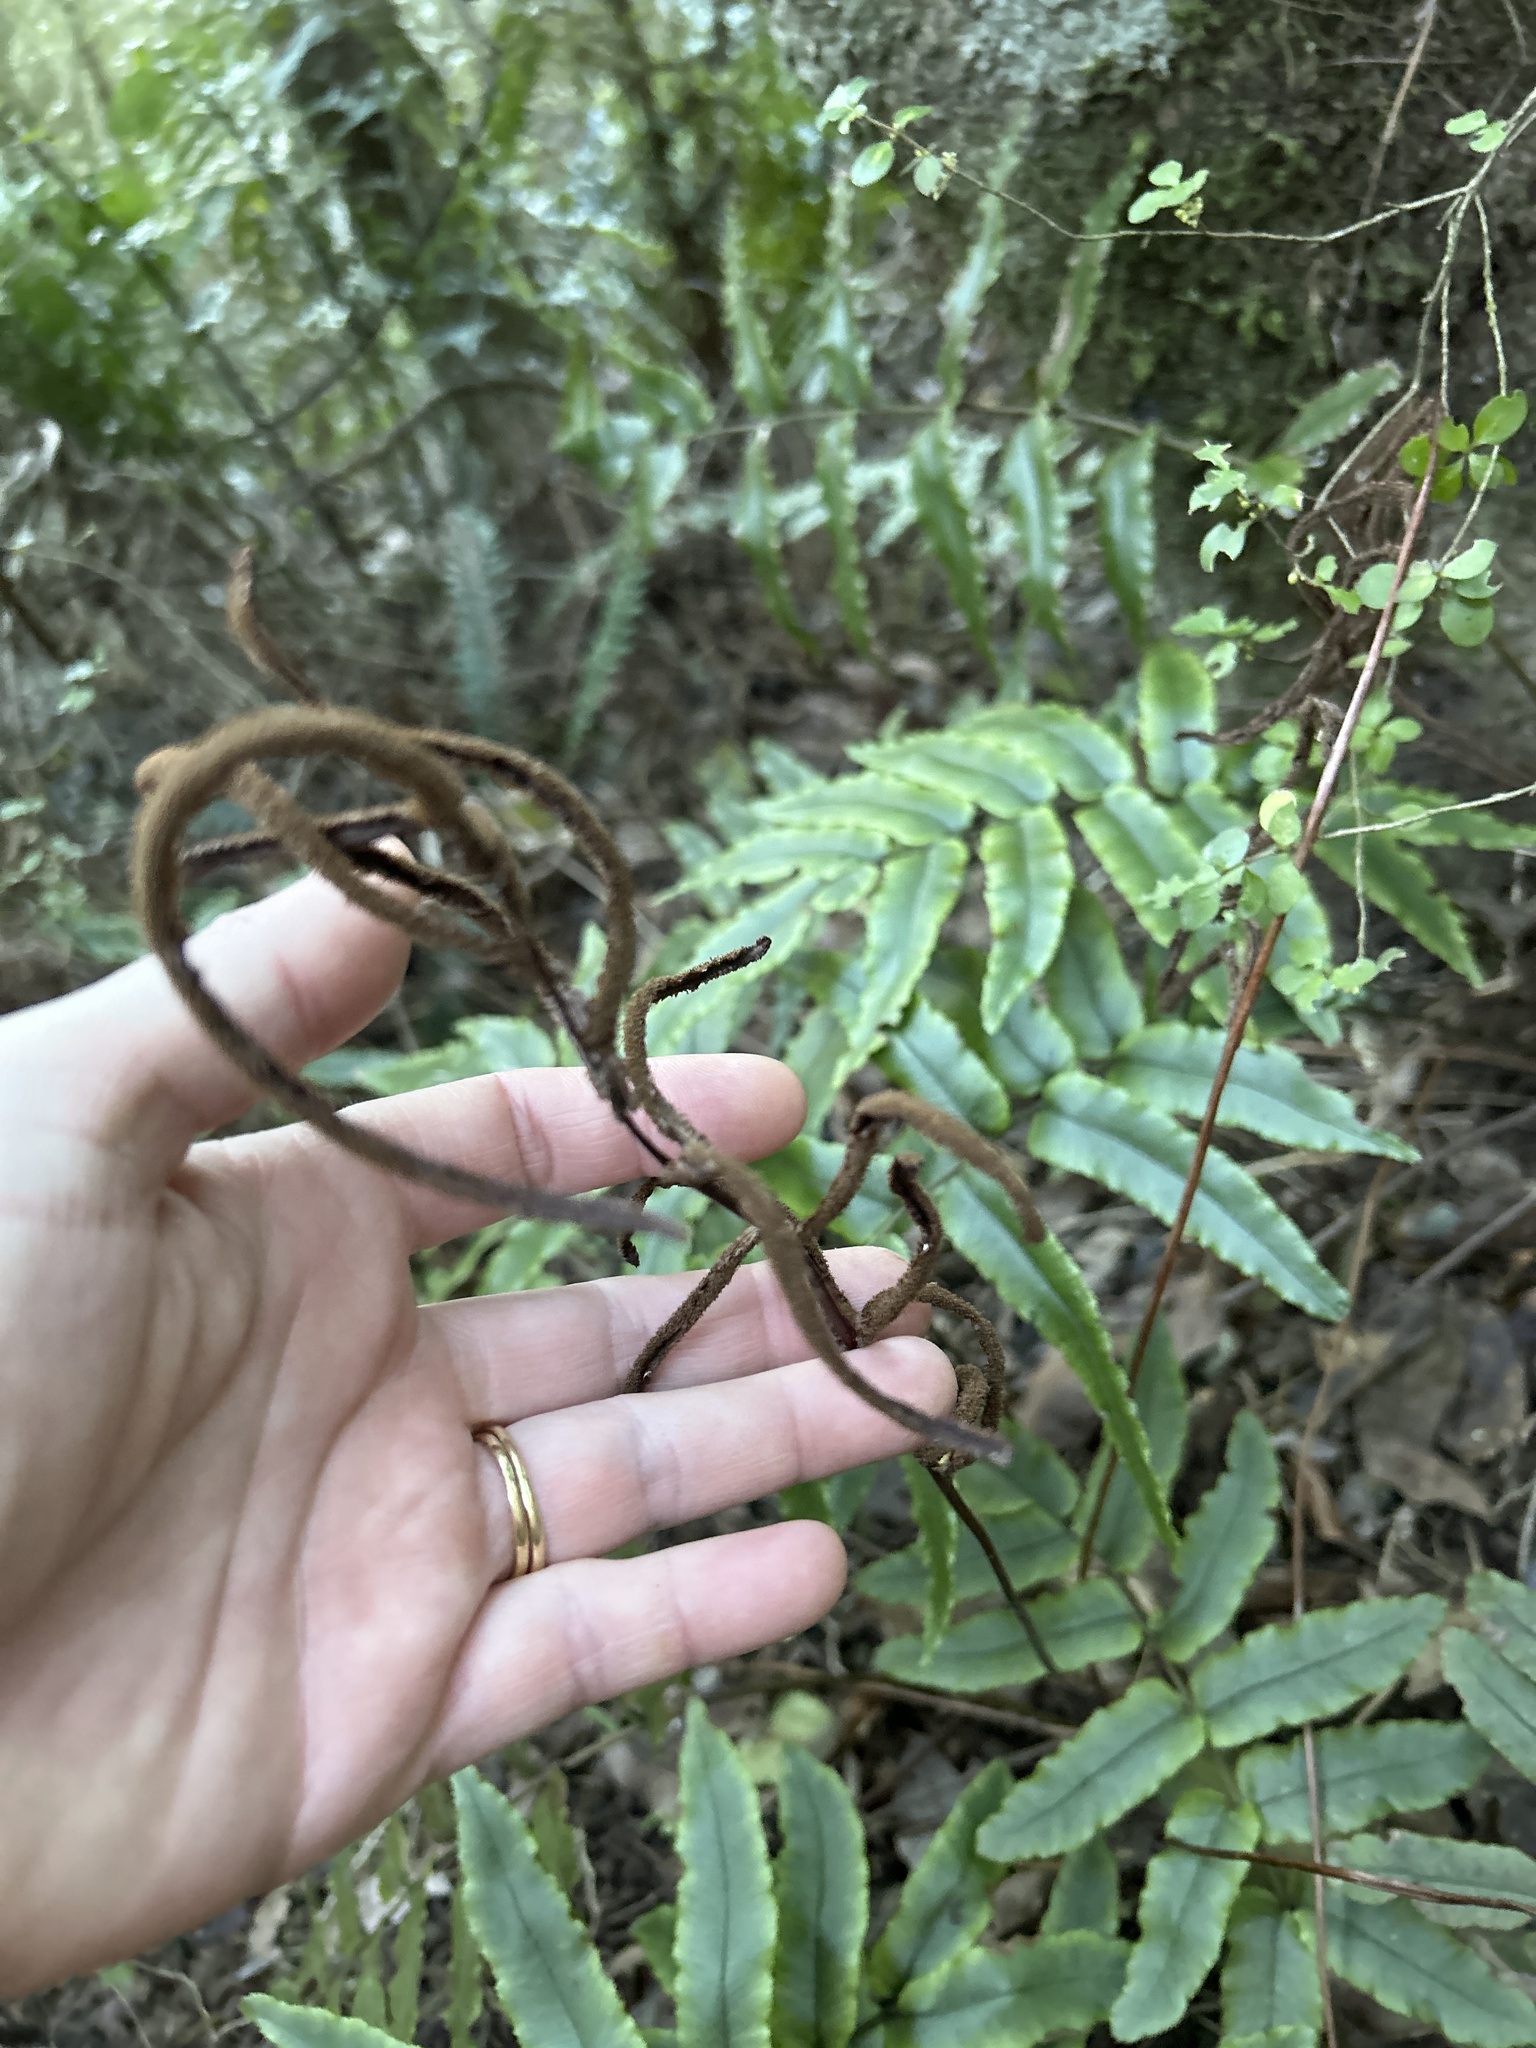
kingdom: Plantae
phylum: Tracheophyta
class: Polypodiopsida
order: Polypodiales
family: Blechnaceae
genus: Parablechnum
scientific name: Parablechnum procerum
